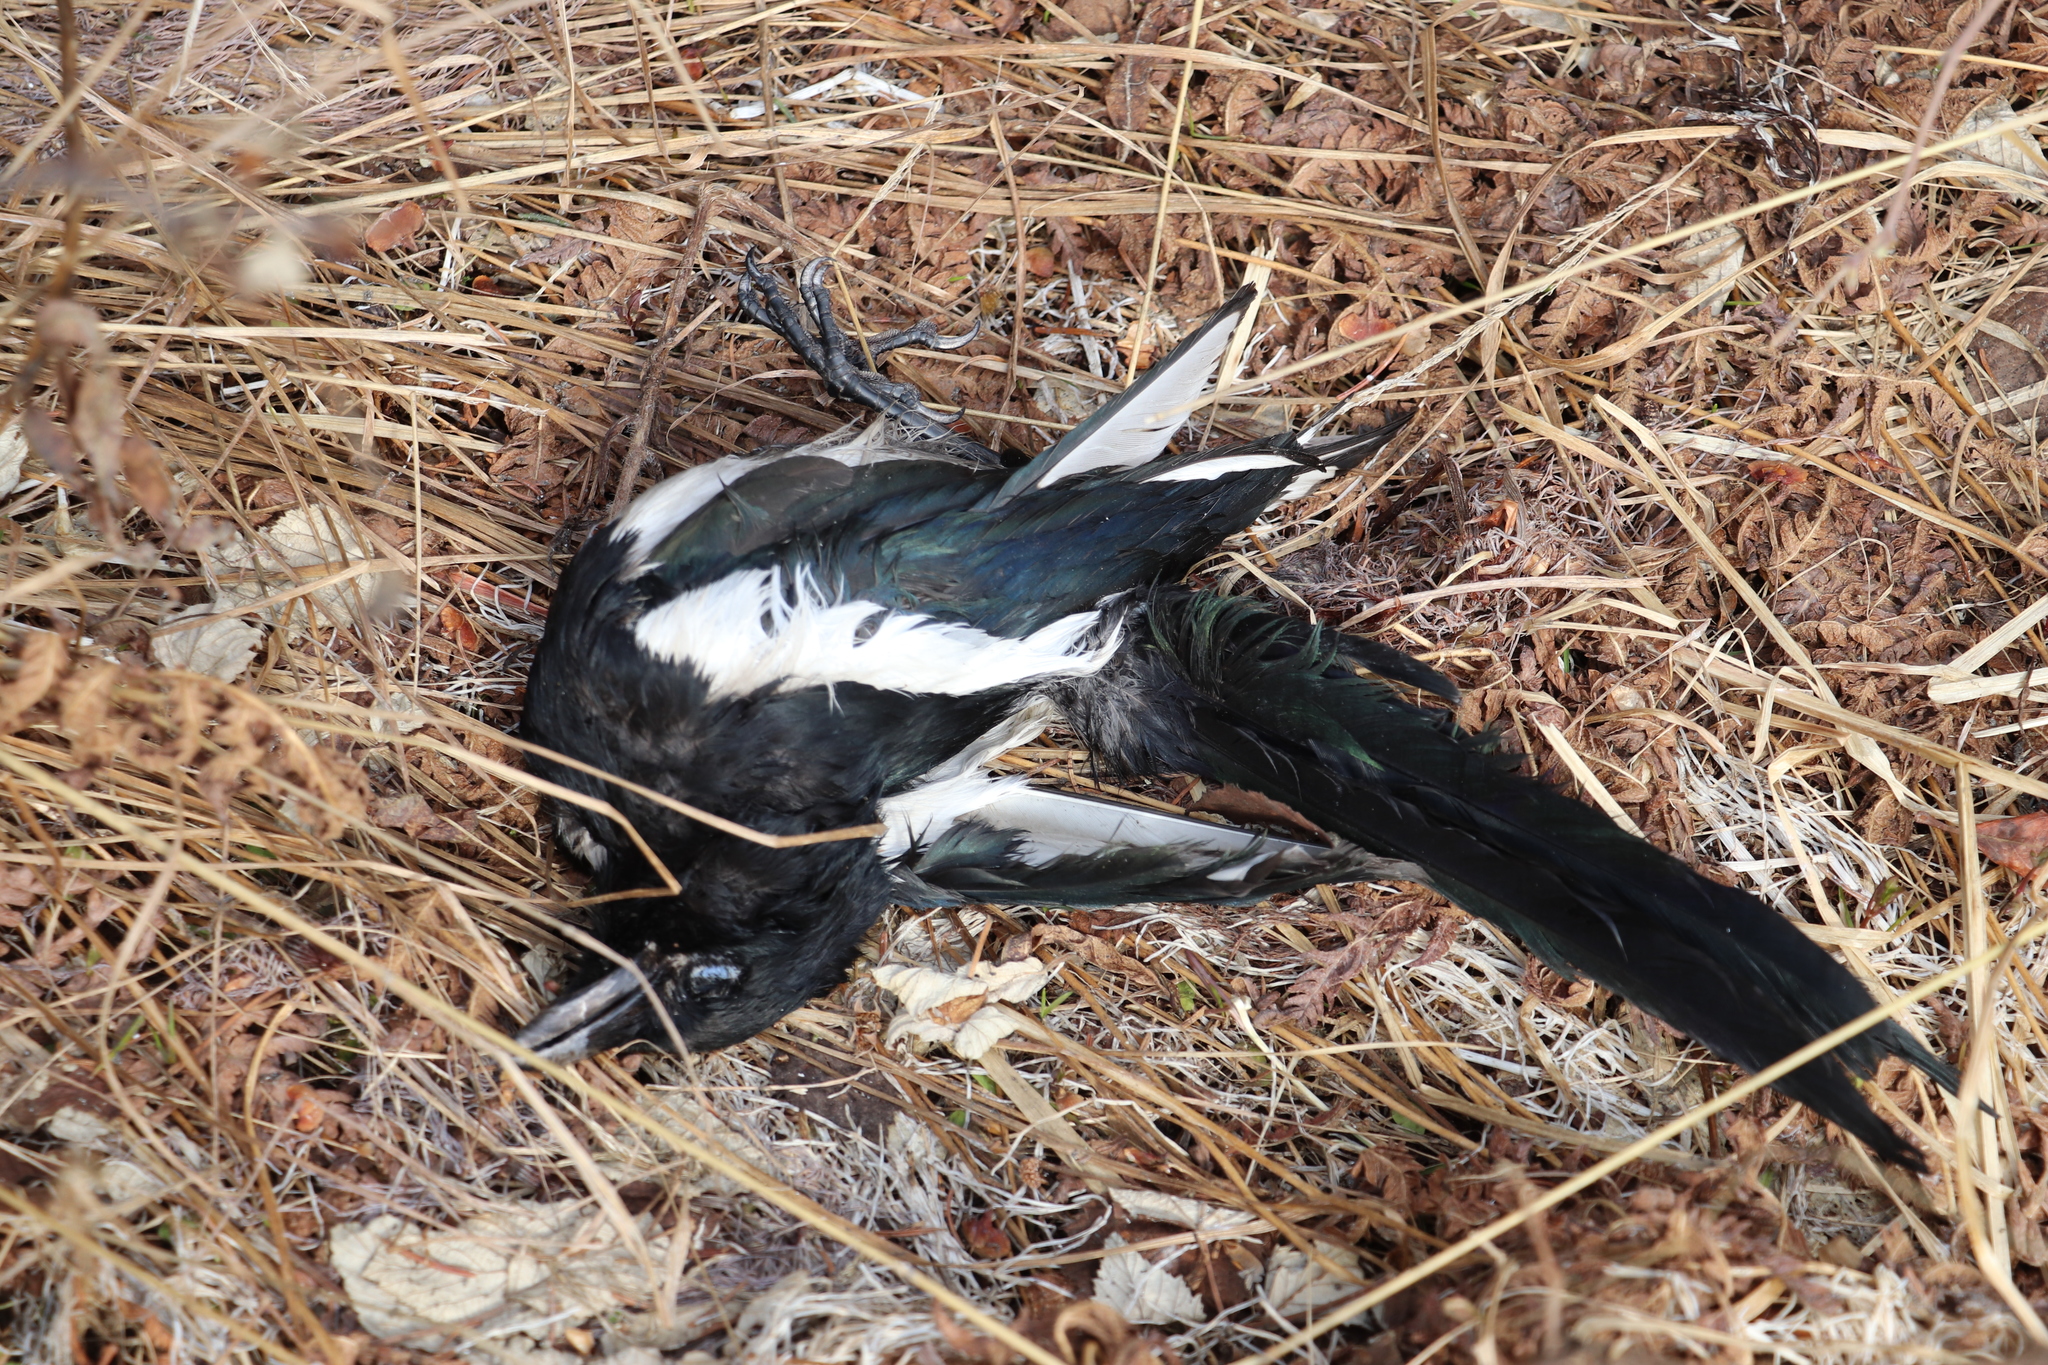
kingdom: Animalia
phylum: Chordata
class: Aves
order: Passeriformes
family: Corvidae
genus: Pica
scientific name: Pica pica
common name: Eurasian magpie
